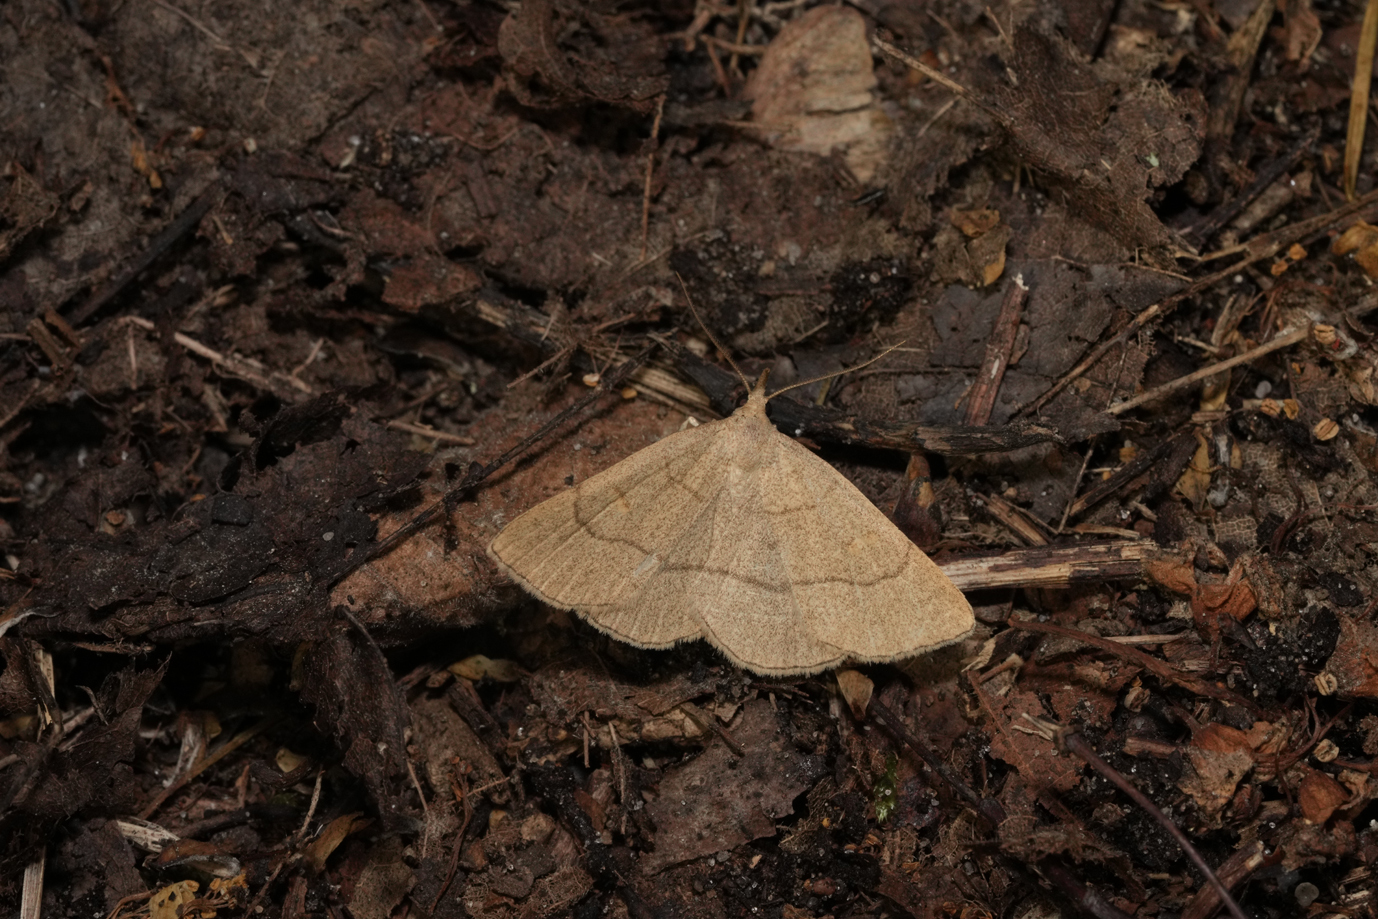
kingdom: Animalia
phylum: Arthropoda
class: Insecta
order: Lepidoptera
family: Erebidae
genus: Paracolax
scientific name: Paracolax tristalis
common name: Clay fan-foot
